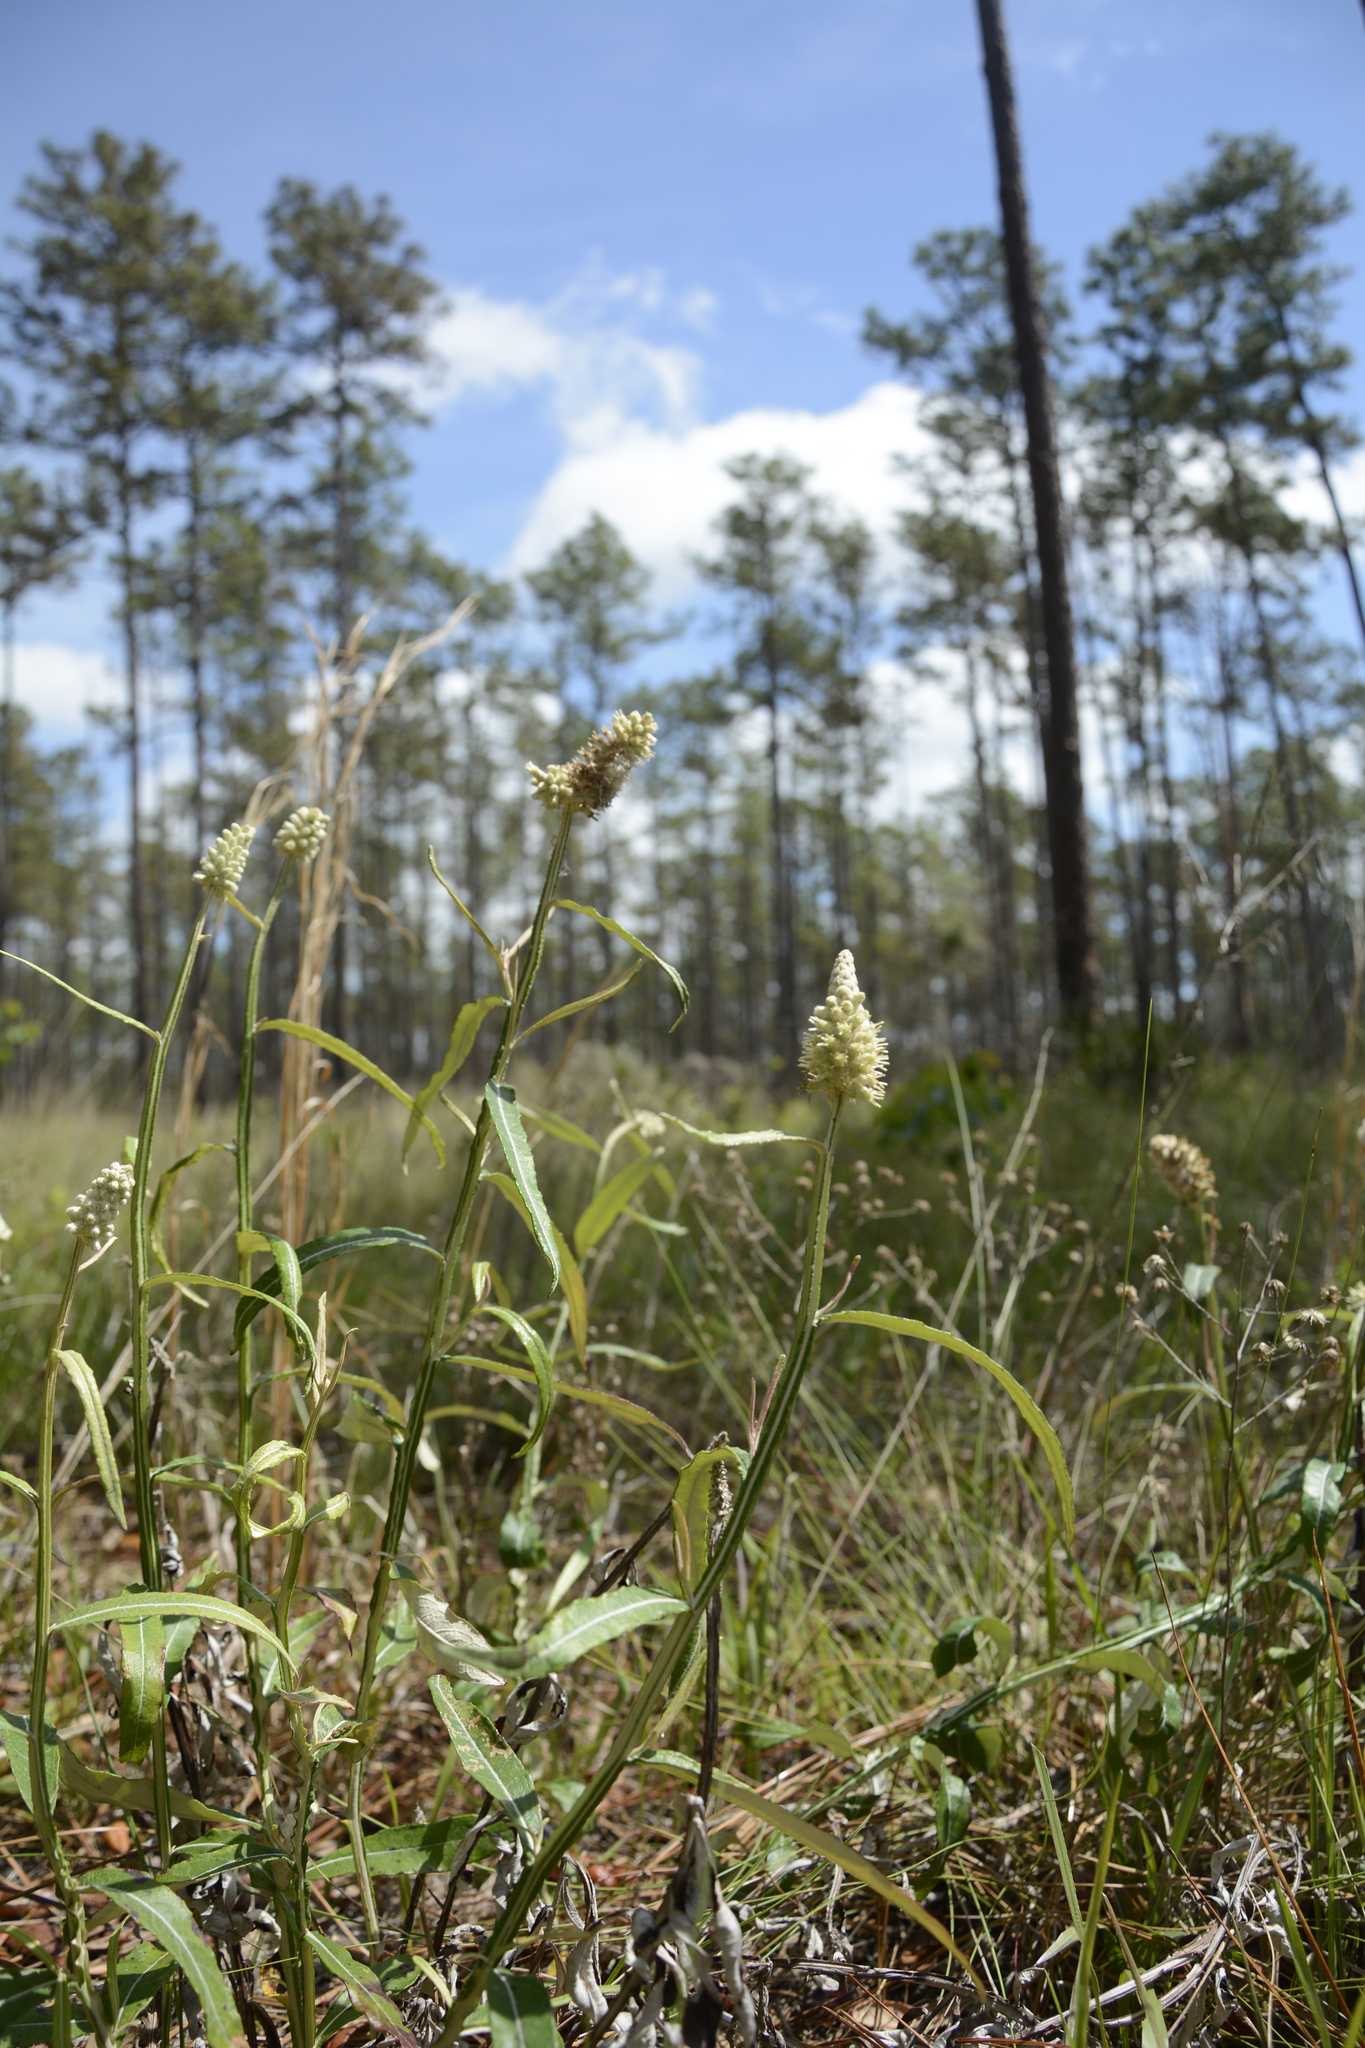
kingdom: Plantae
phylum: Tracheophyta
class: Magnoliopsida
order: Asterales
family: Asteraceae
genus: Pterocaulon
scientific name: Pterocaulon pycnostachyum
